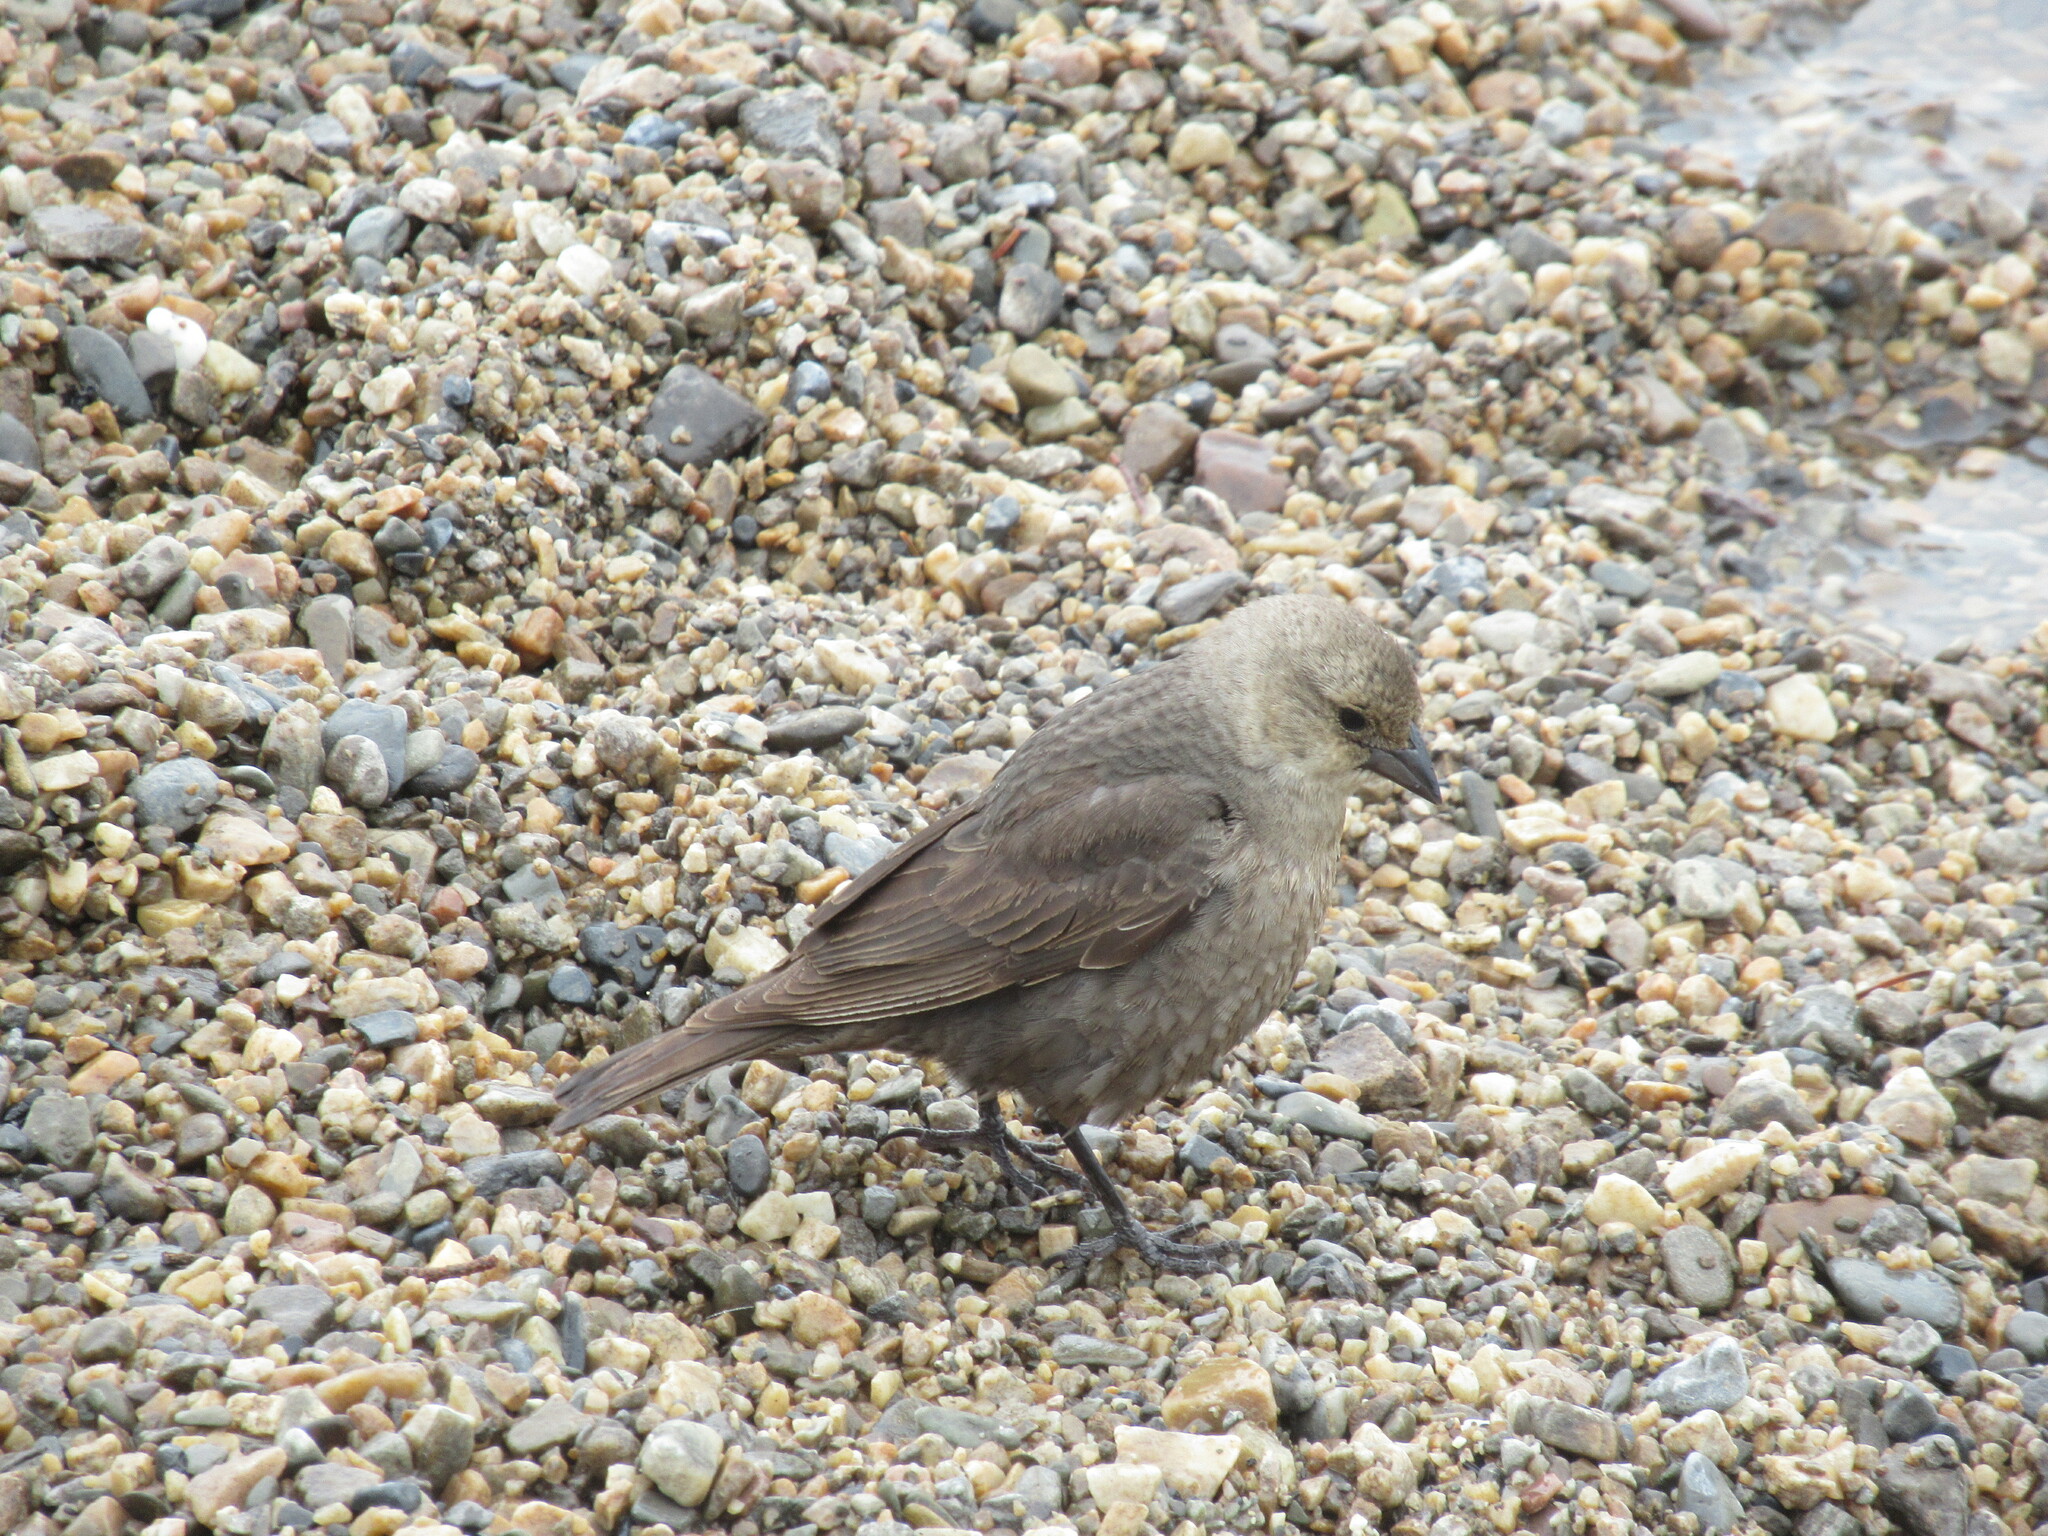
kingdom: Animalia
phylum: Chordata
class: Aves
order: Passeriformes
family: Icteridae
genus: Molothrus
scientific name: Molothrus ater
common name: Brown-headed cowbird
